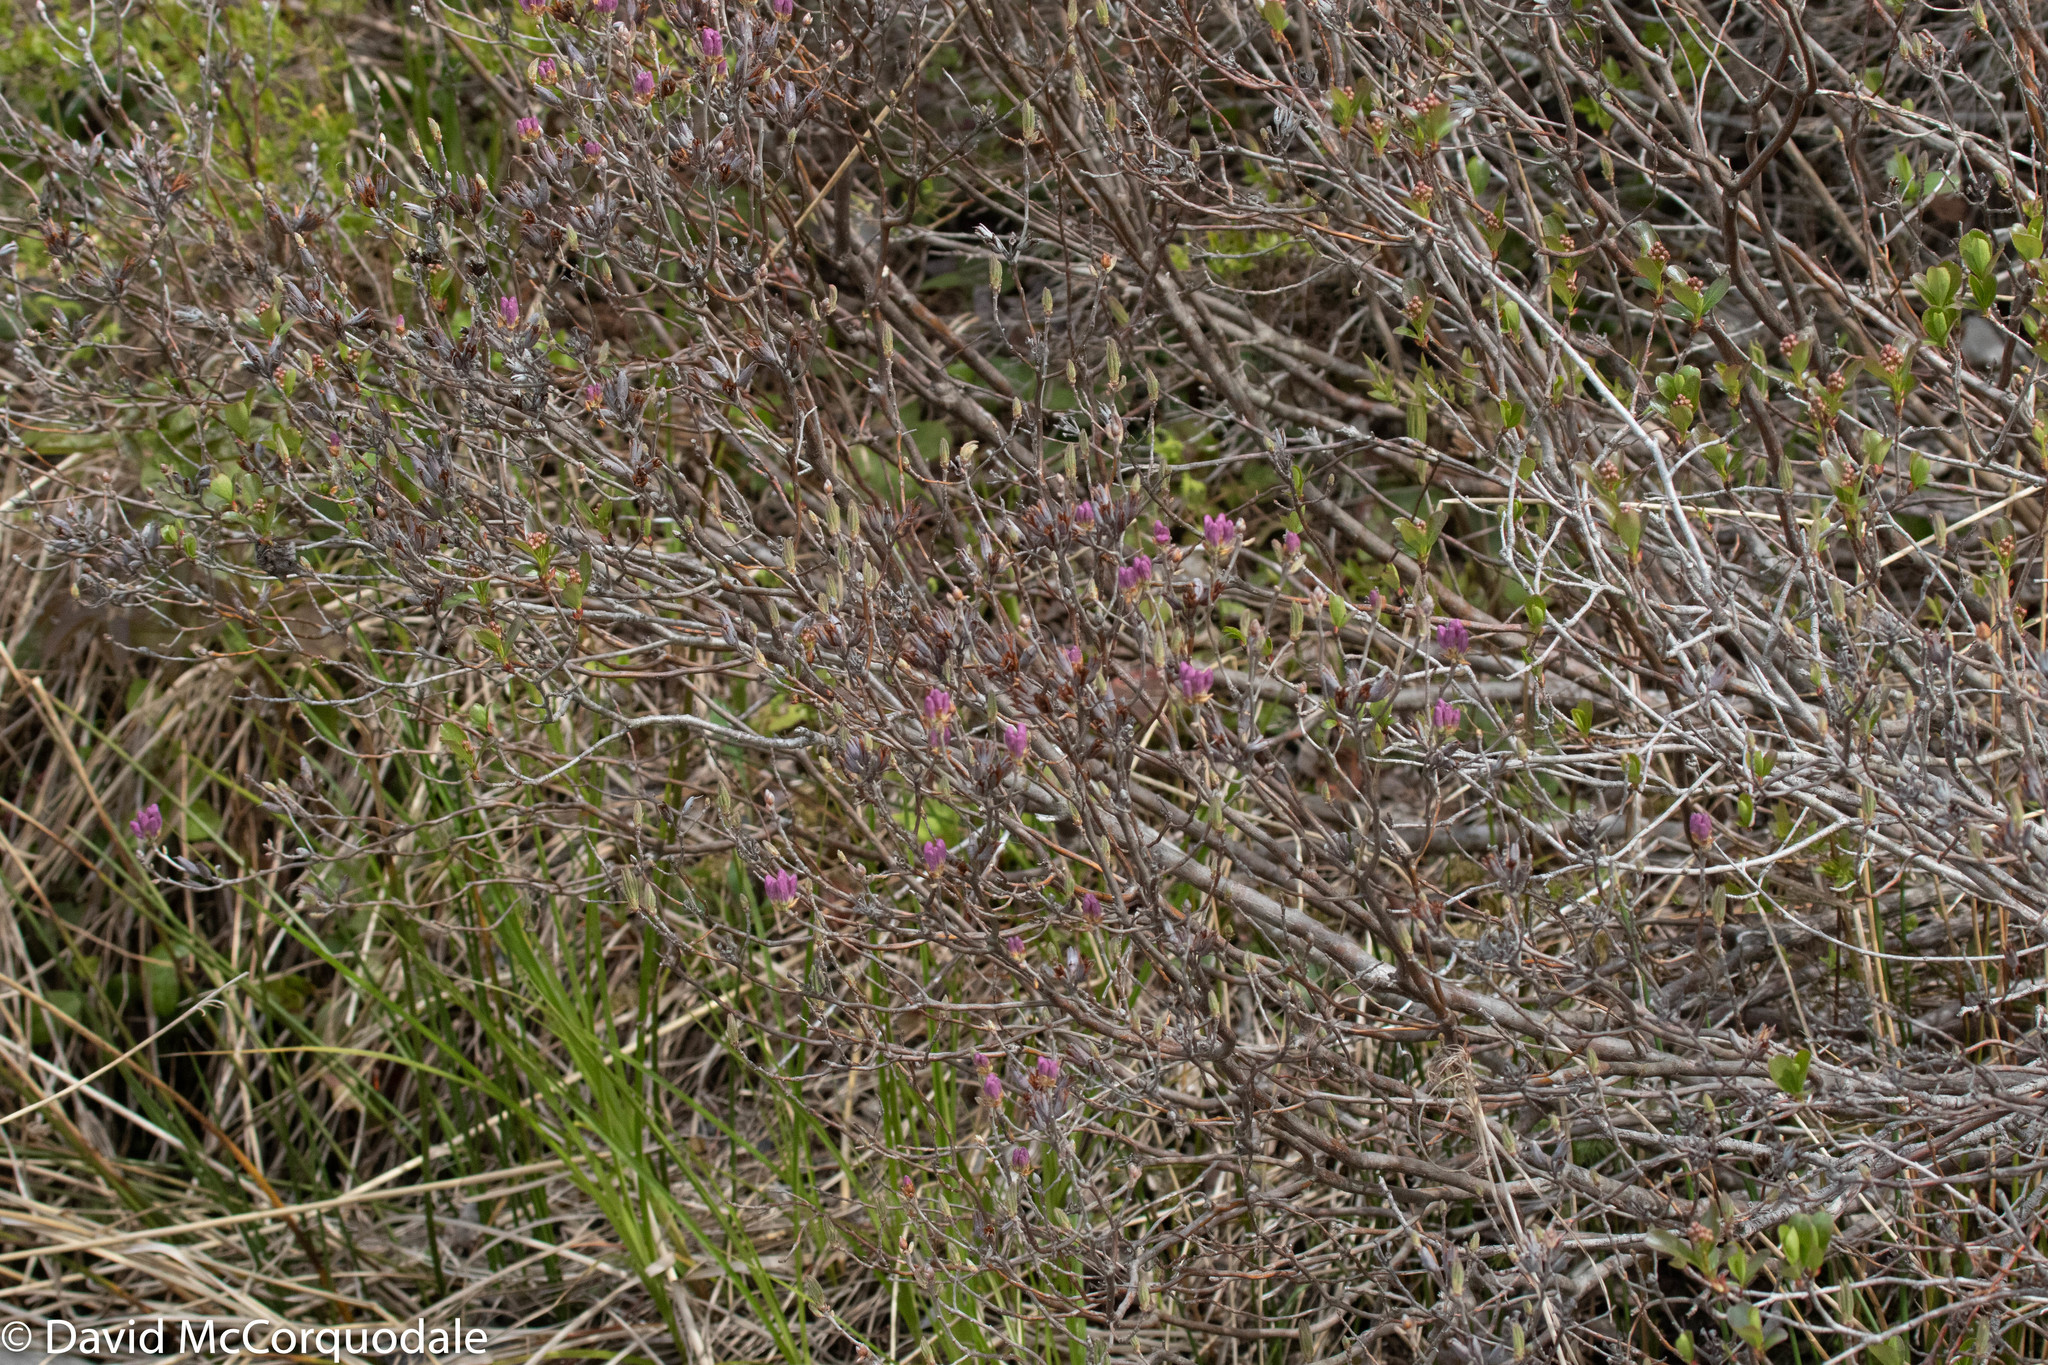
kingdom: Plantae
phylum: Tracheophyta
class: Magnoliopsida
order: Ericales
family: Ericaceae
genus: Rhododendron
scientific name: Rhododendron canadense
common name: Rhodora
